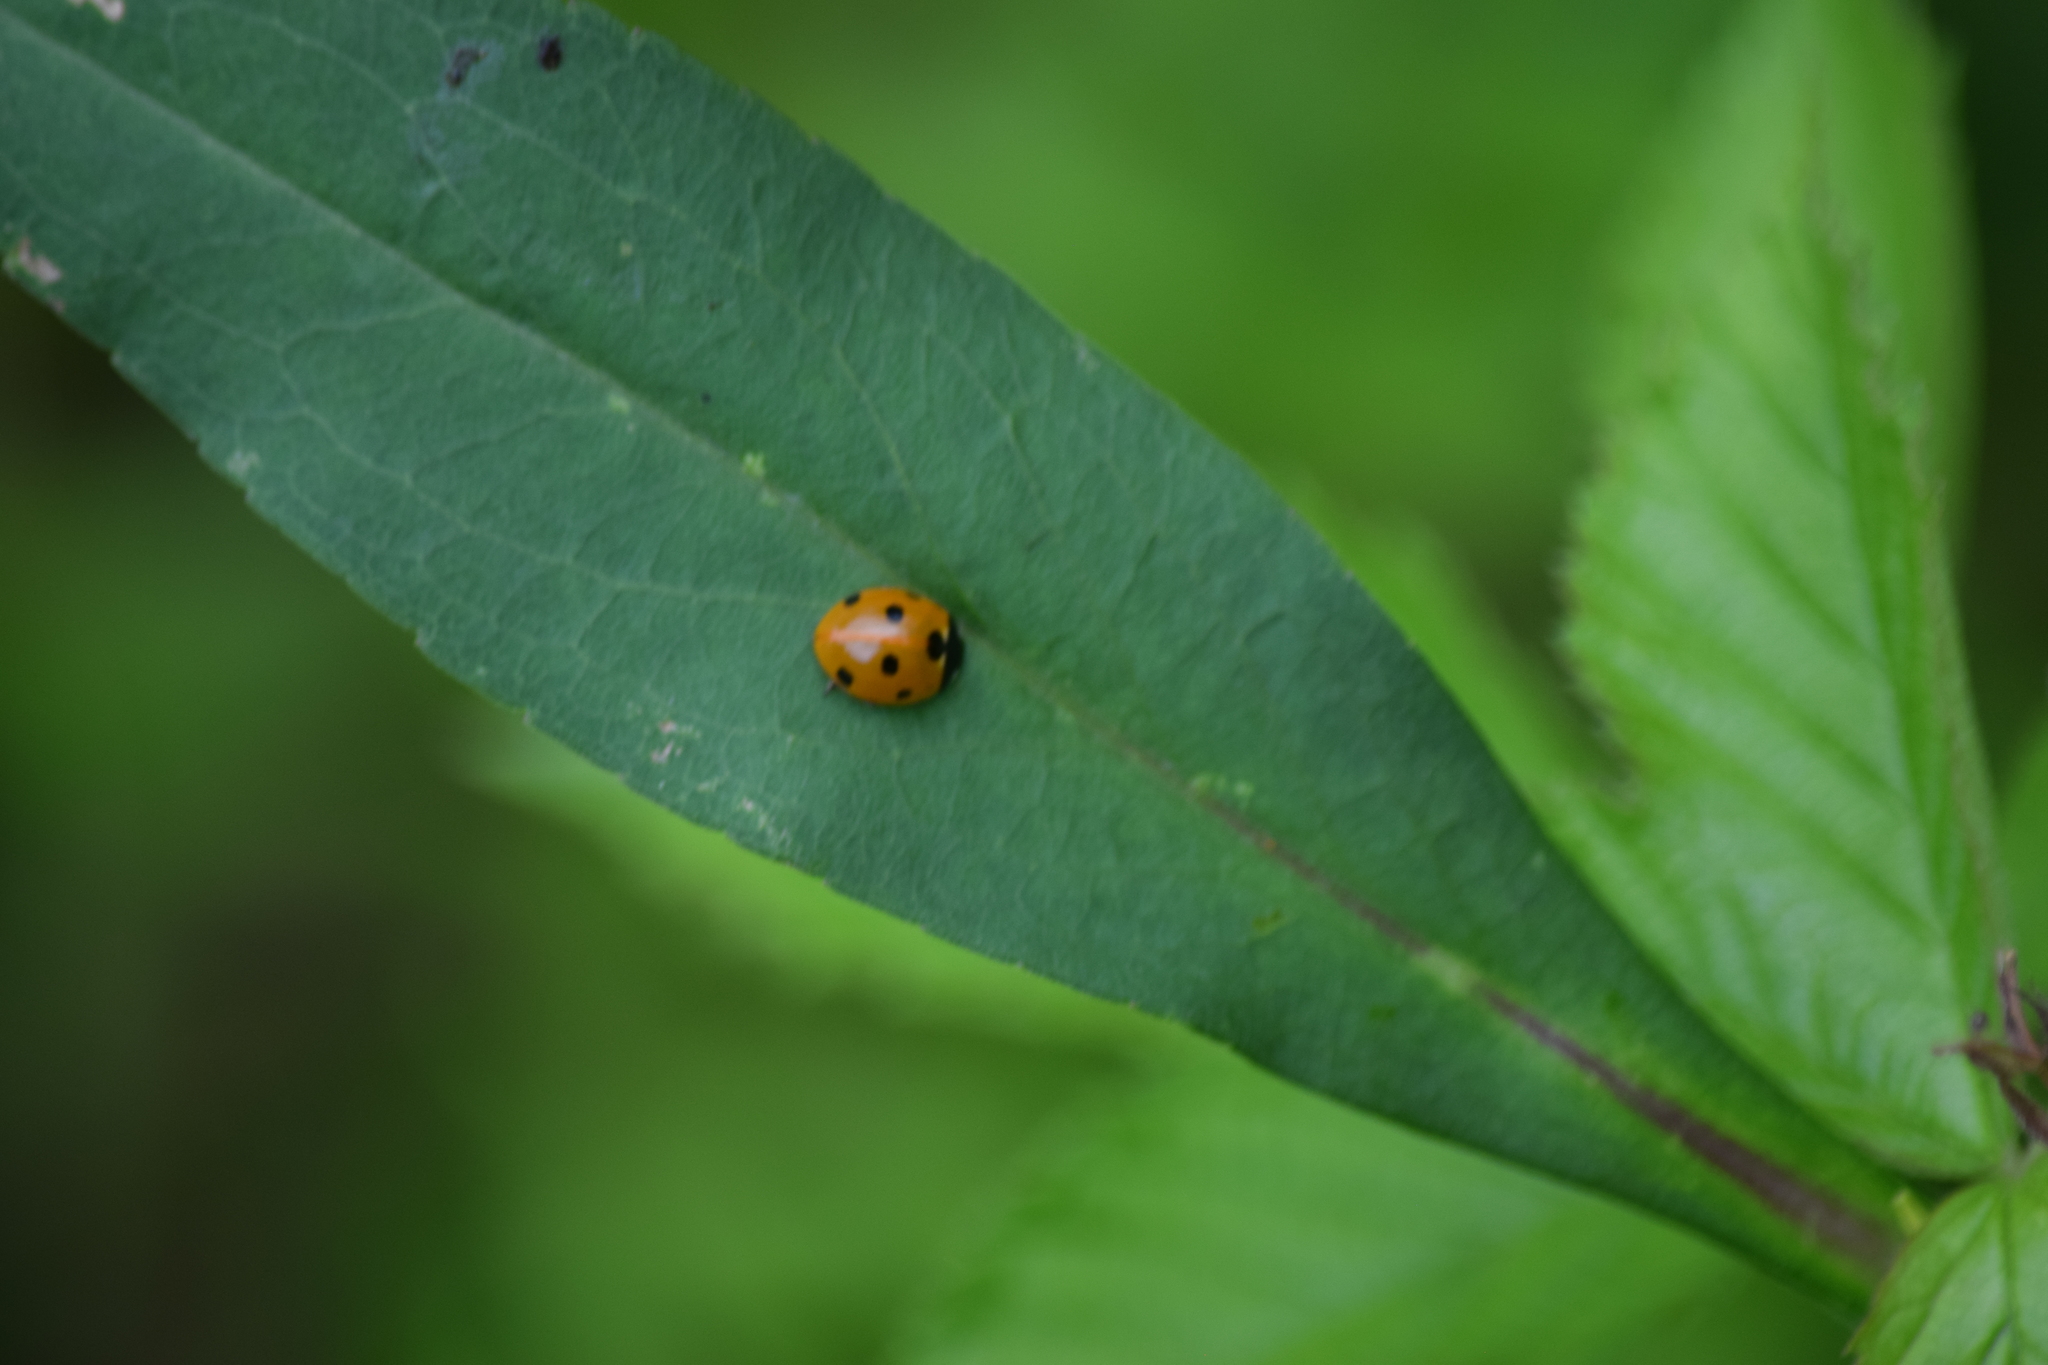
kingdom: Animalia
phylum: Arthropoda
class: Insecta
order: Coleoptera
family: Coccinellidae
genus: Coccinella
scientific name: Coccinella septempunctata
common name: Sevenspotted lady beetle
